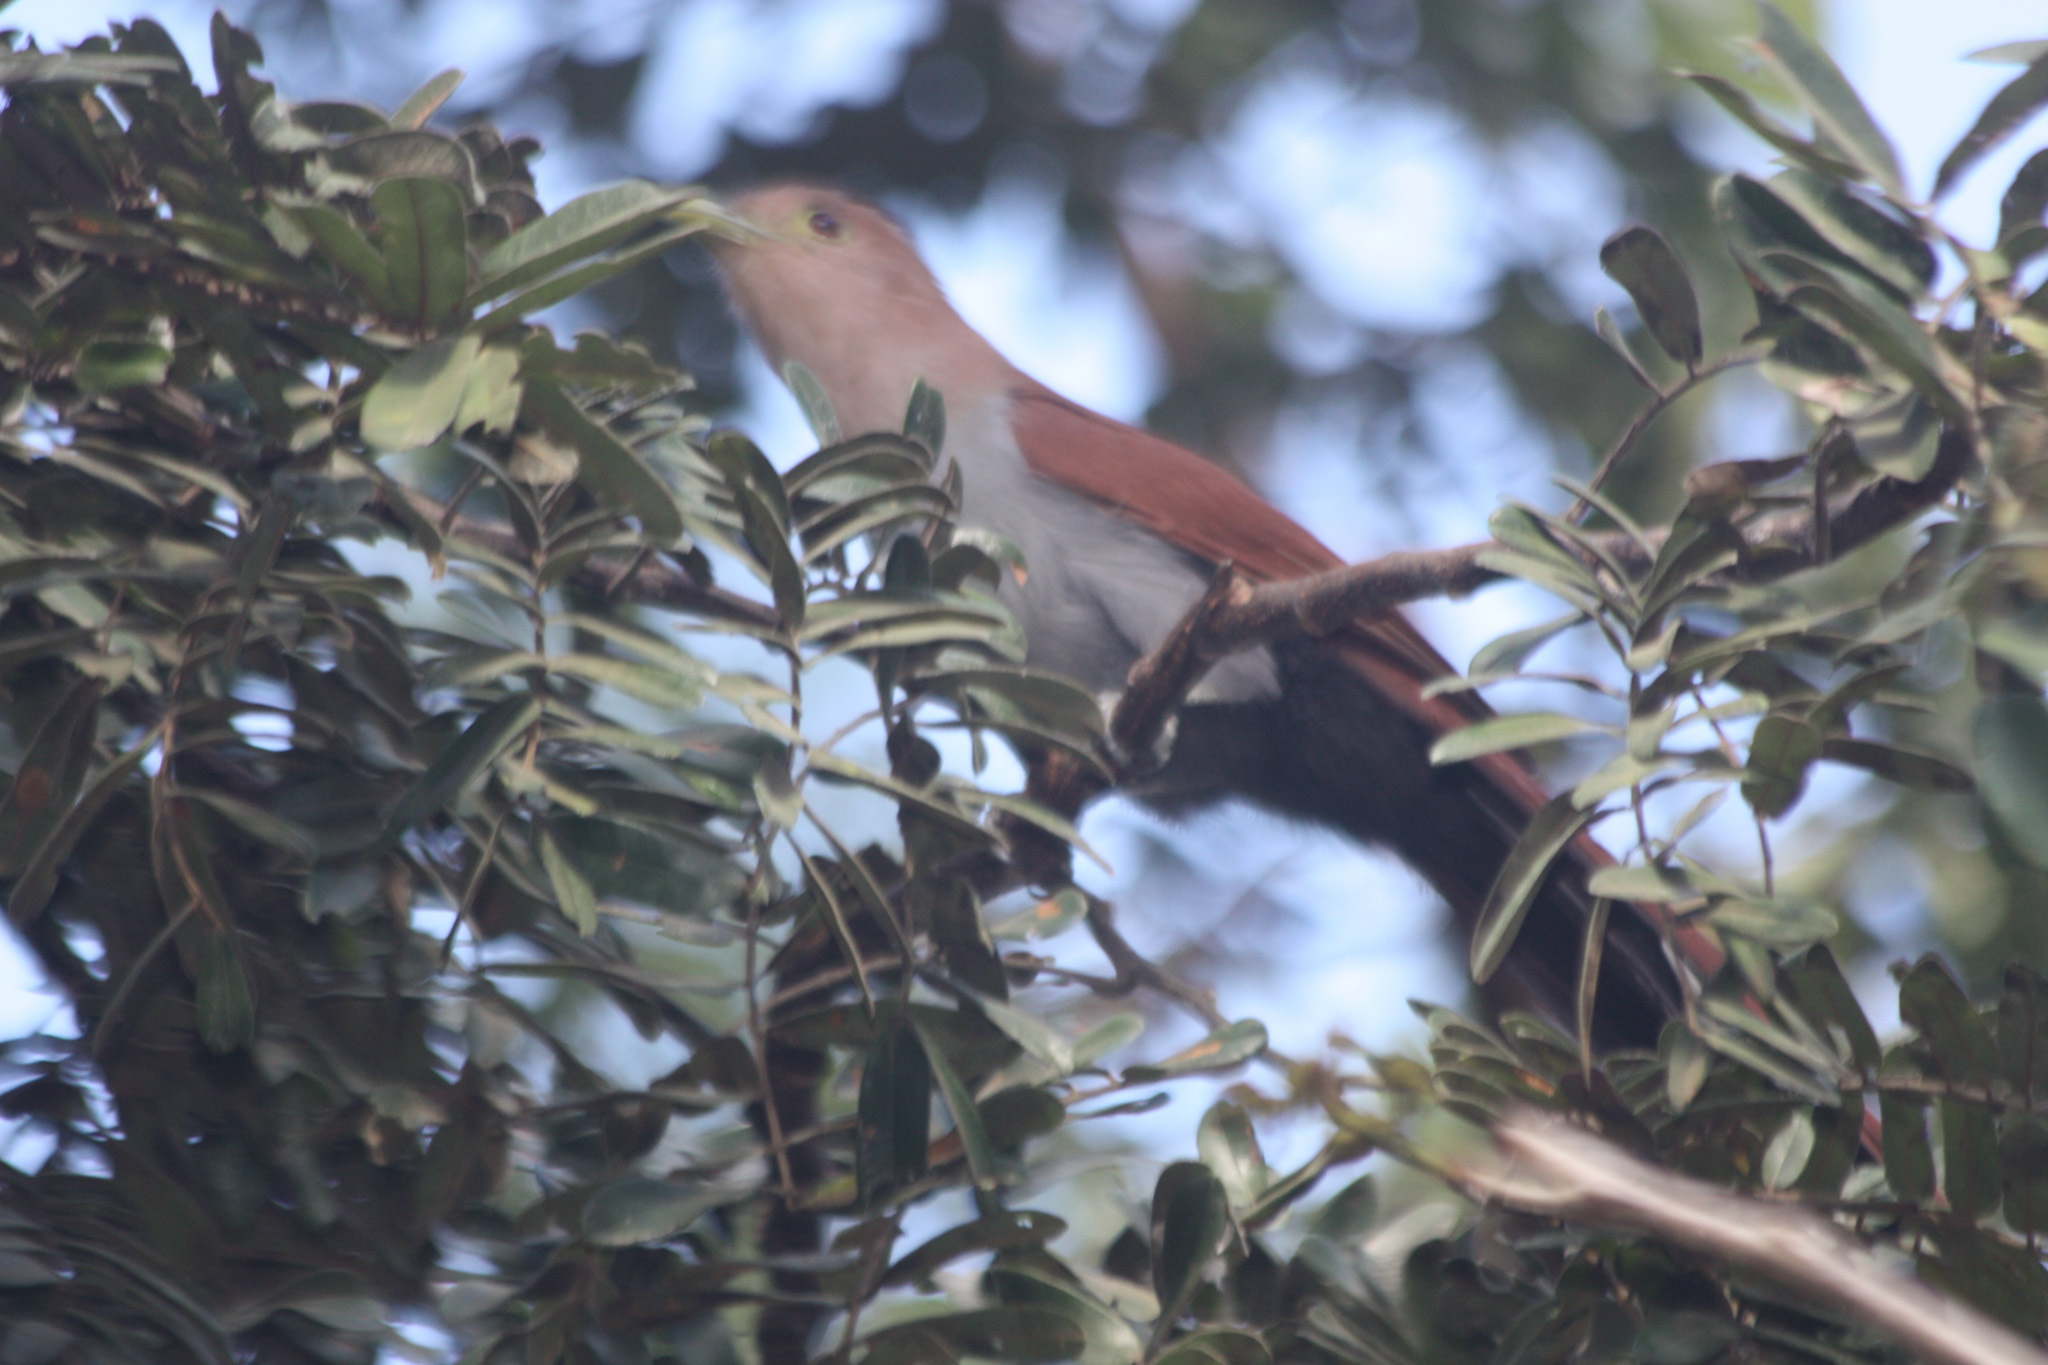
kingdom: Animalia
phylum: Chordata
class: Aves
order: Cuculiformes
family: Cuculidae
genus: Piaya
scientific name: Piaya cayana
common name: Squirrel cuckoo
